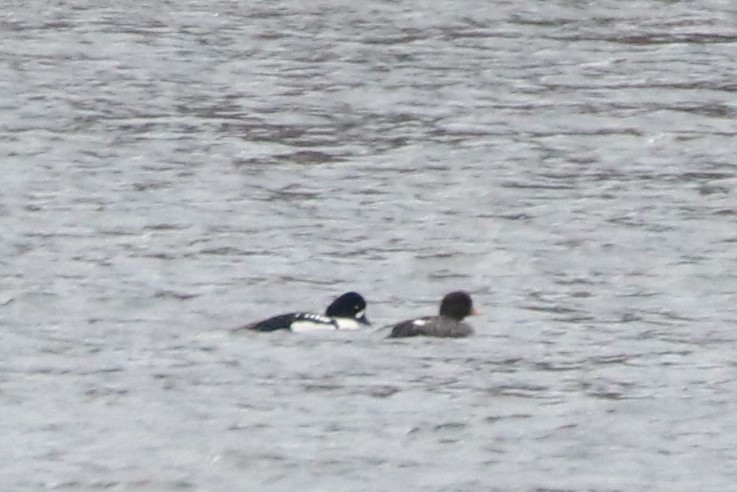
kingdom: Animalia
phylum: Chordata
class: Aves
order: Anseriformes
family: Anatidae
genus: Bucephala
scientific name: Bucephala islandica
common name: Barrow's goldeneye
